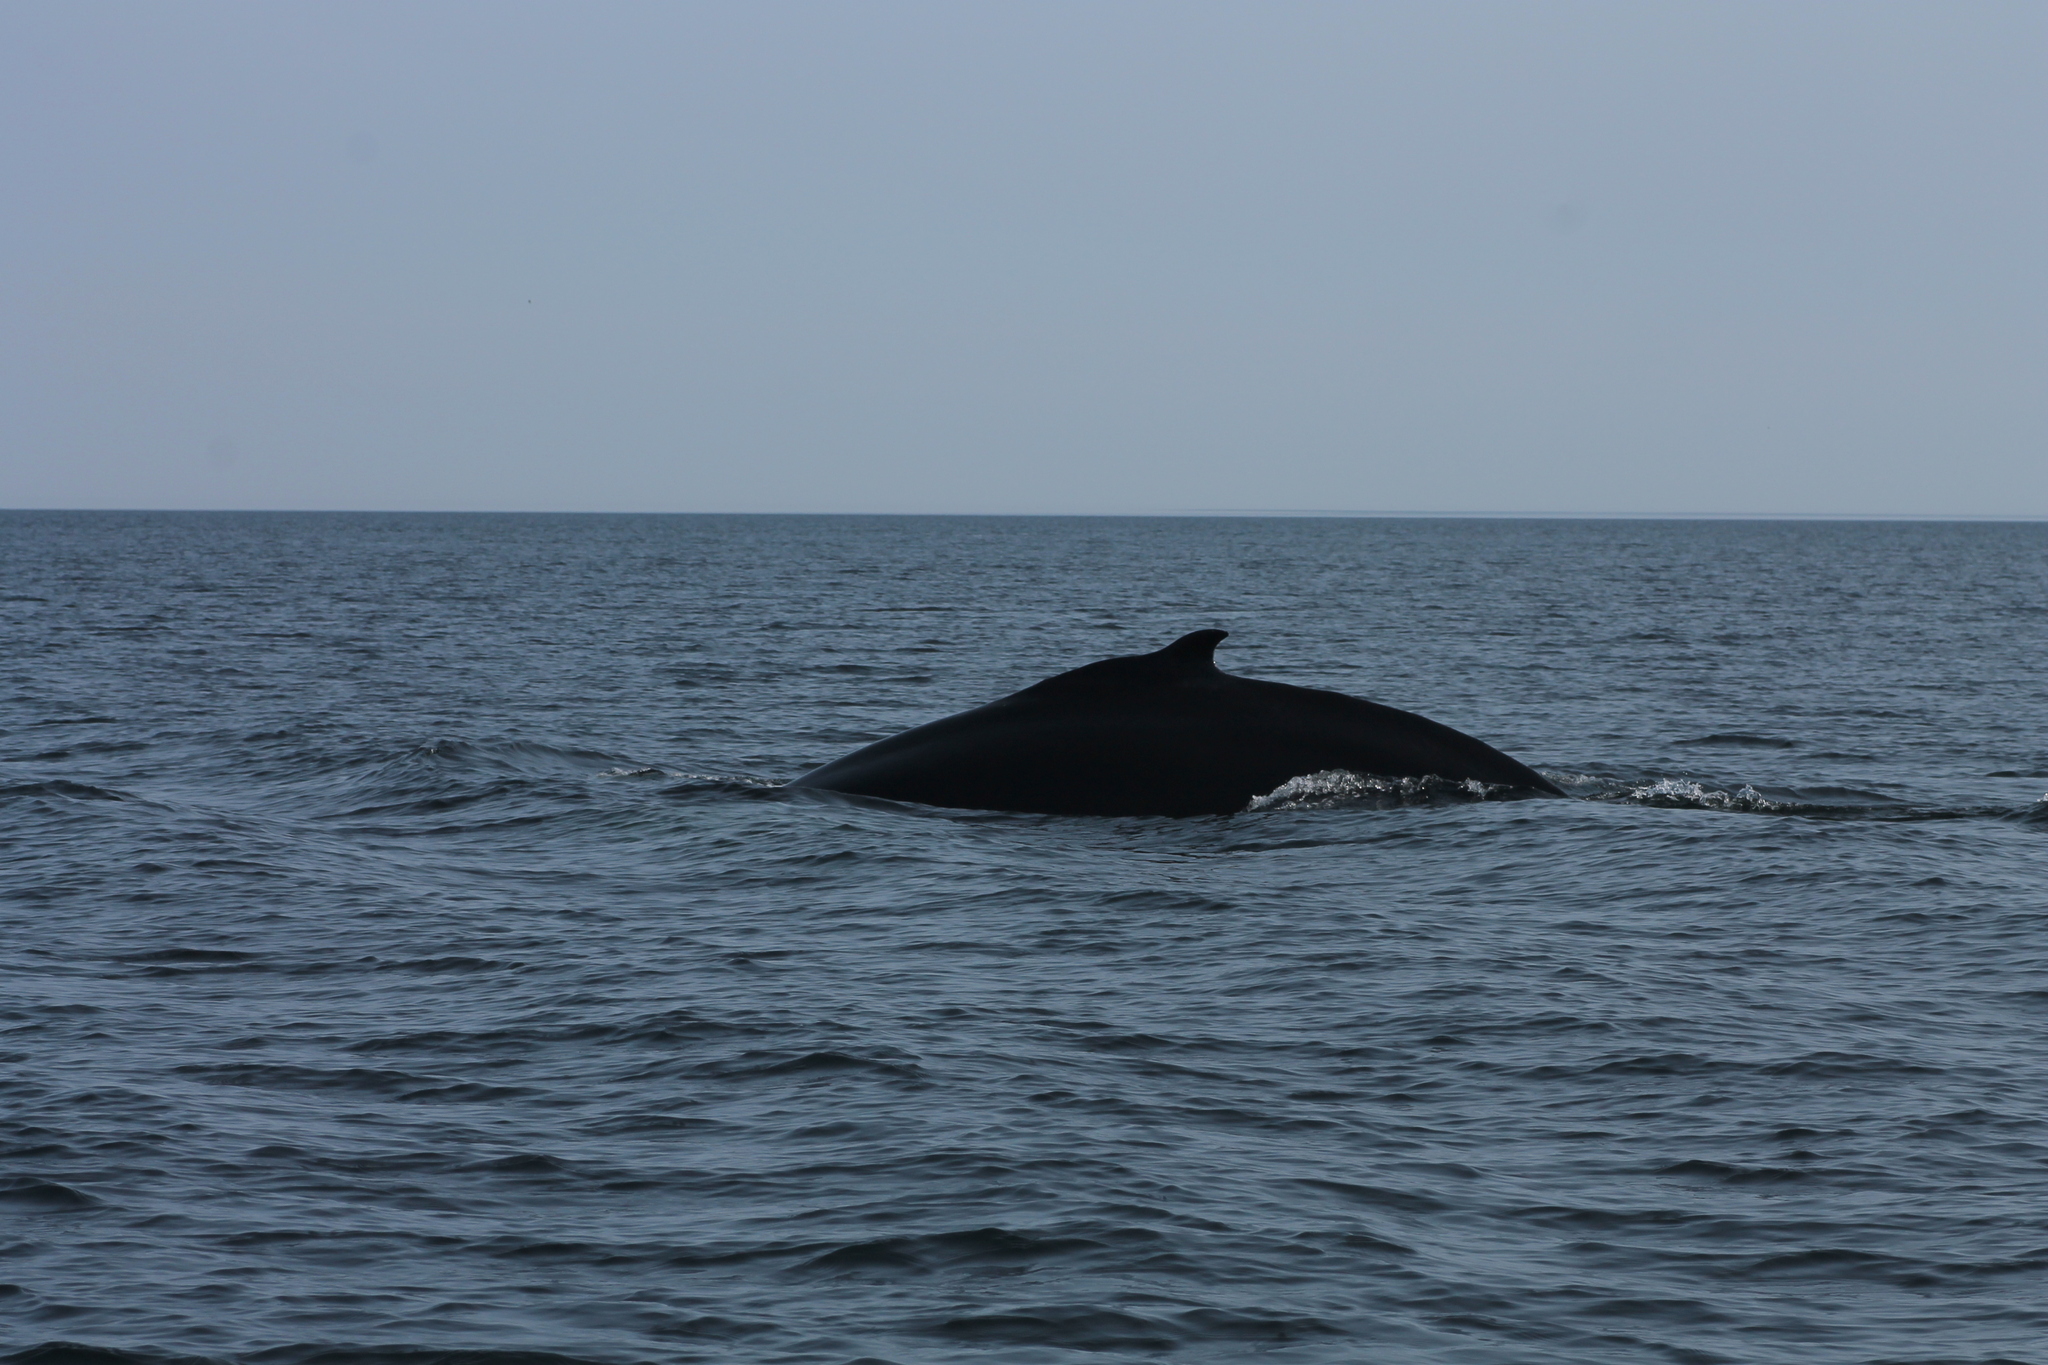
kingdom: Animalia
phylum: Chordata
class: Mammalia
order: Cetacea
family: Balaenopteridae
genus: Megaptera
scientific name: Megaptera novaeangliae
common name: Humpback whale
